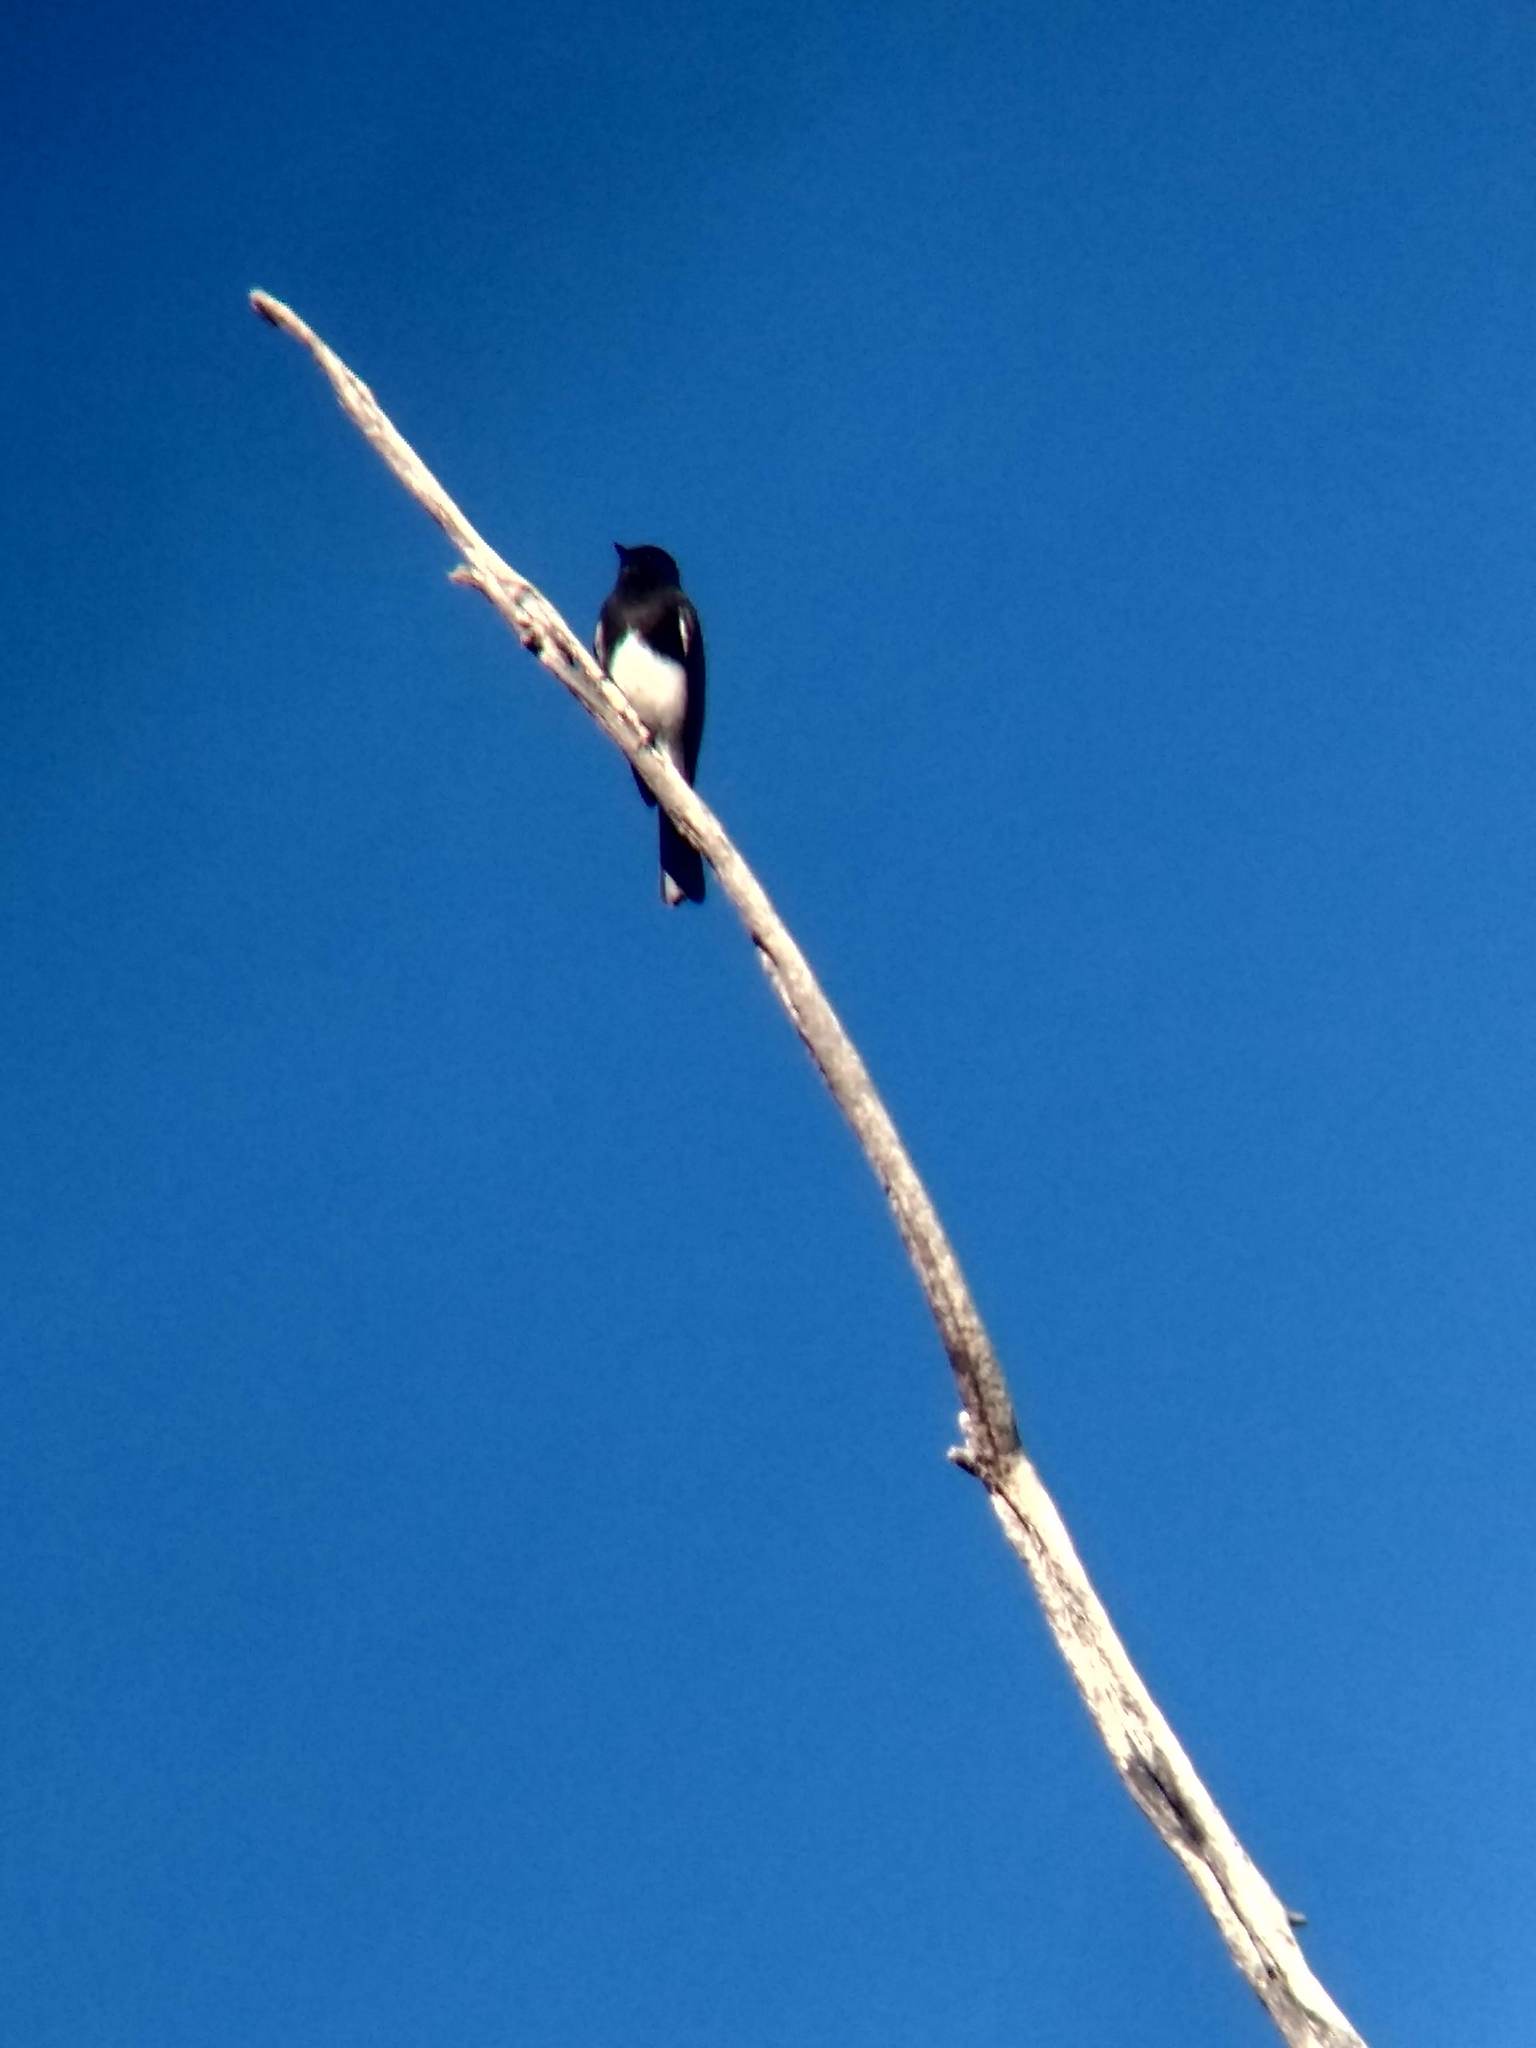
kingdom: Animalia
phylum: Chordata
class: Aves
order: Passeriformes
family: Tyrannidae
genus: Sayornis
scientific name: Sayornis nigricans
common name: Black phoebe
